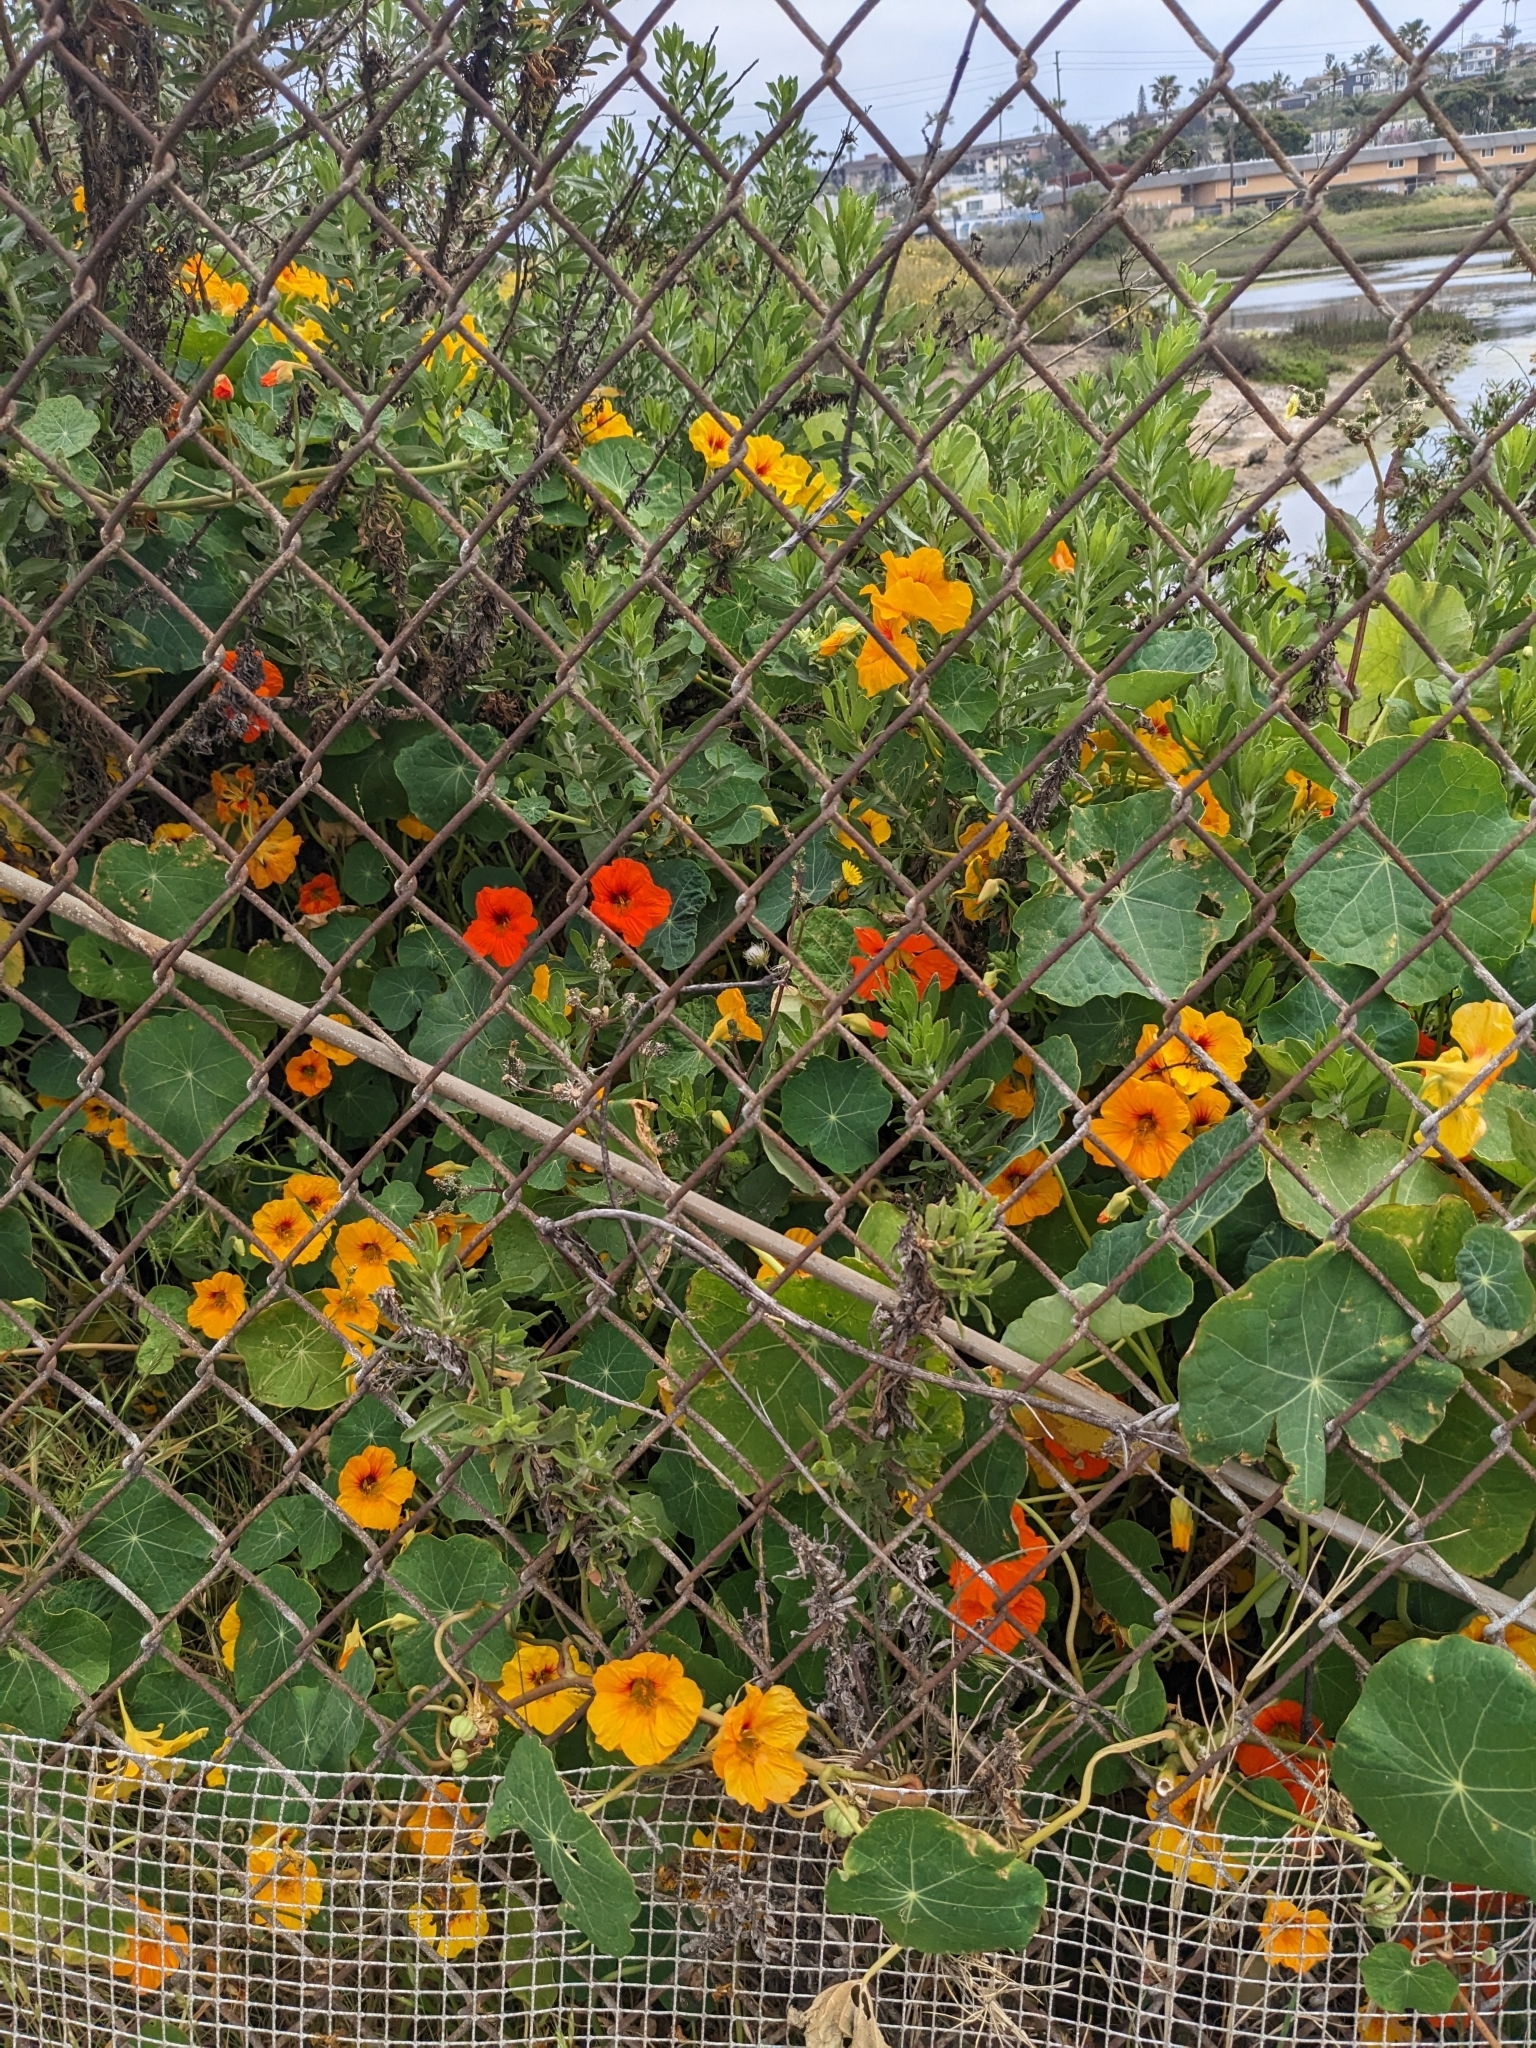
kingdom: Plantae
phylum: Tracheophyta
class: Magnoliopsida
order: Brassicales
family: Tropaeolaceae
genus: Tropaeolum
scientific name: Tropaeolum majus
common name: Nasturtium
